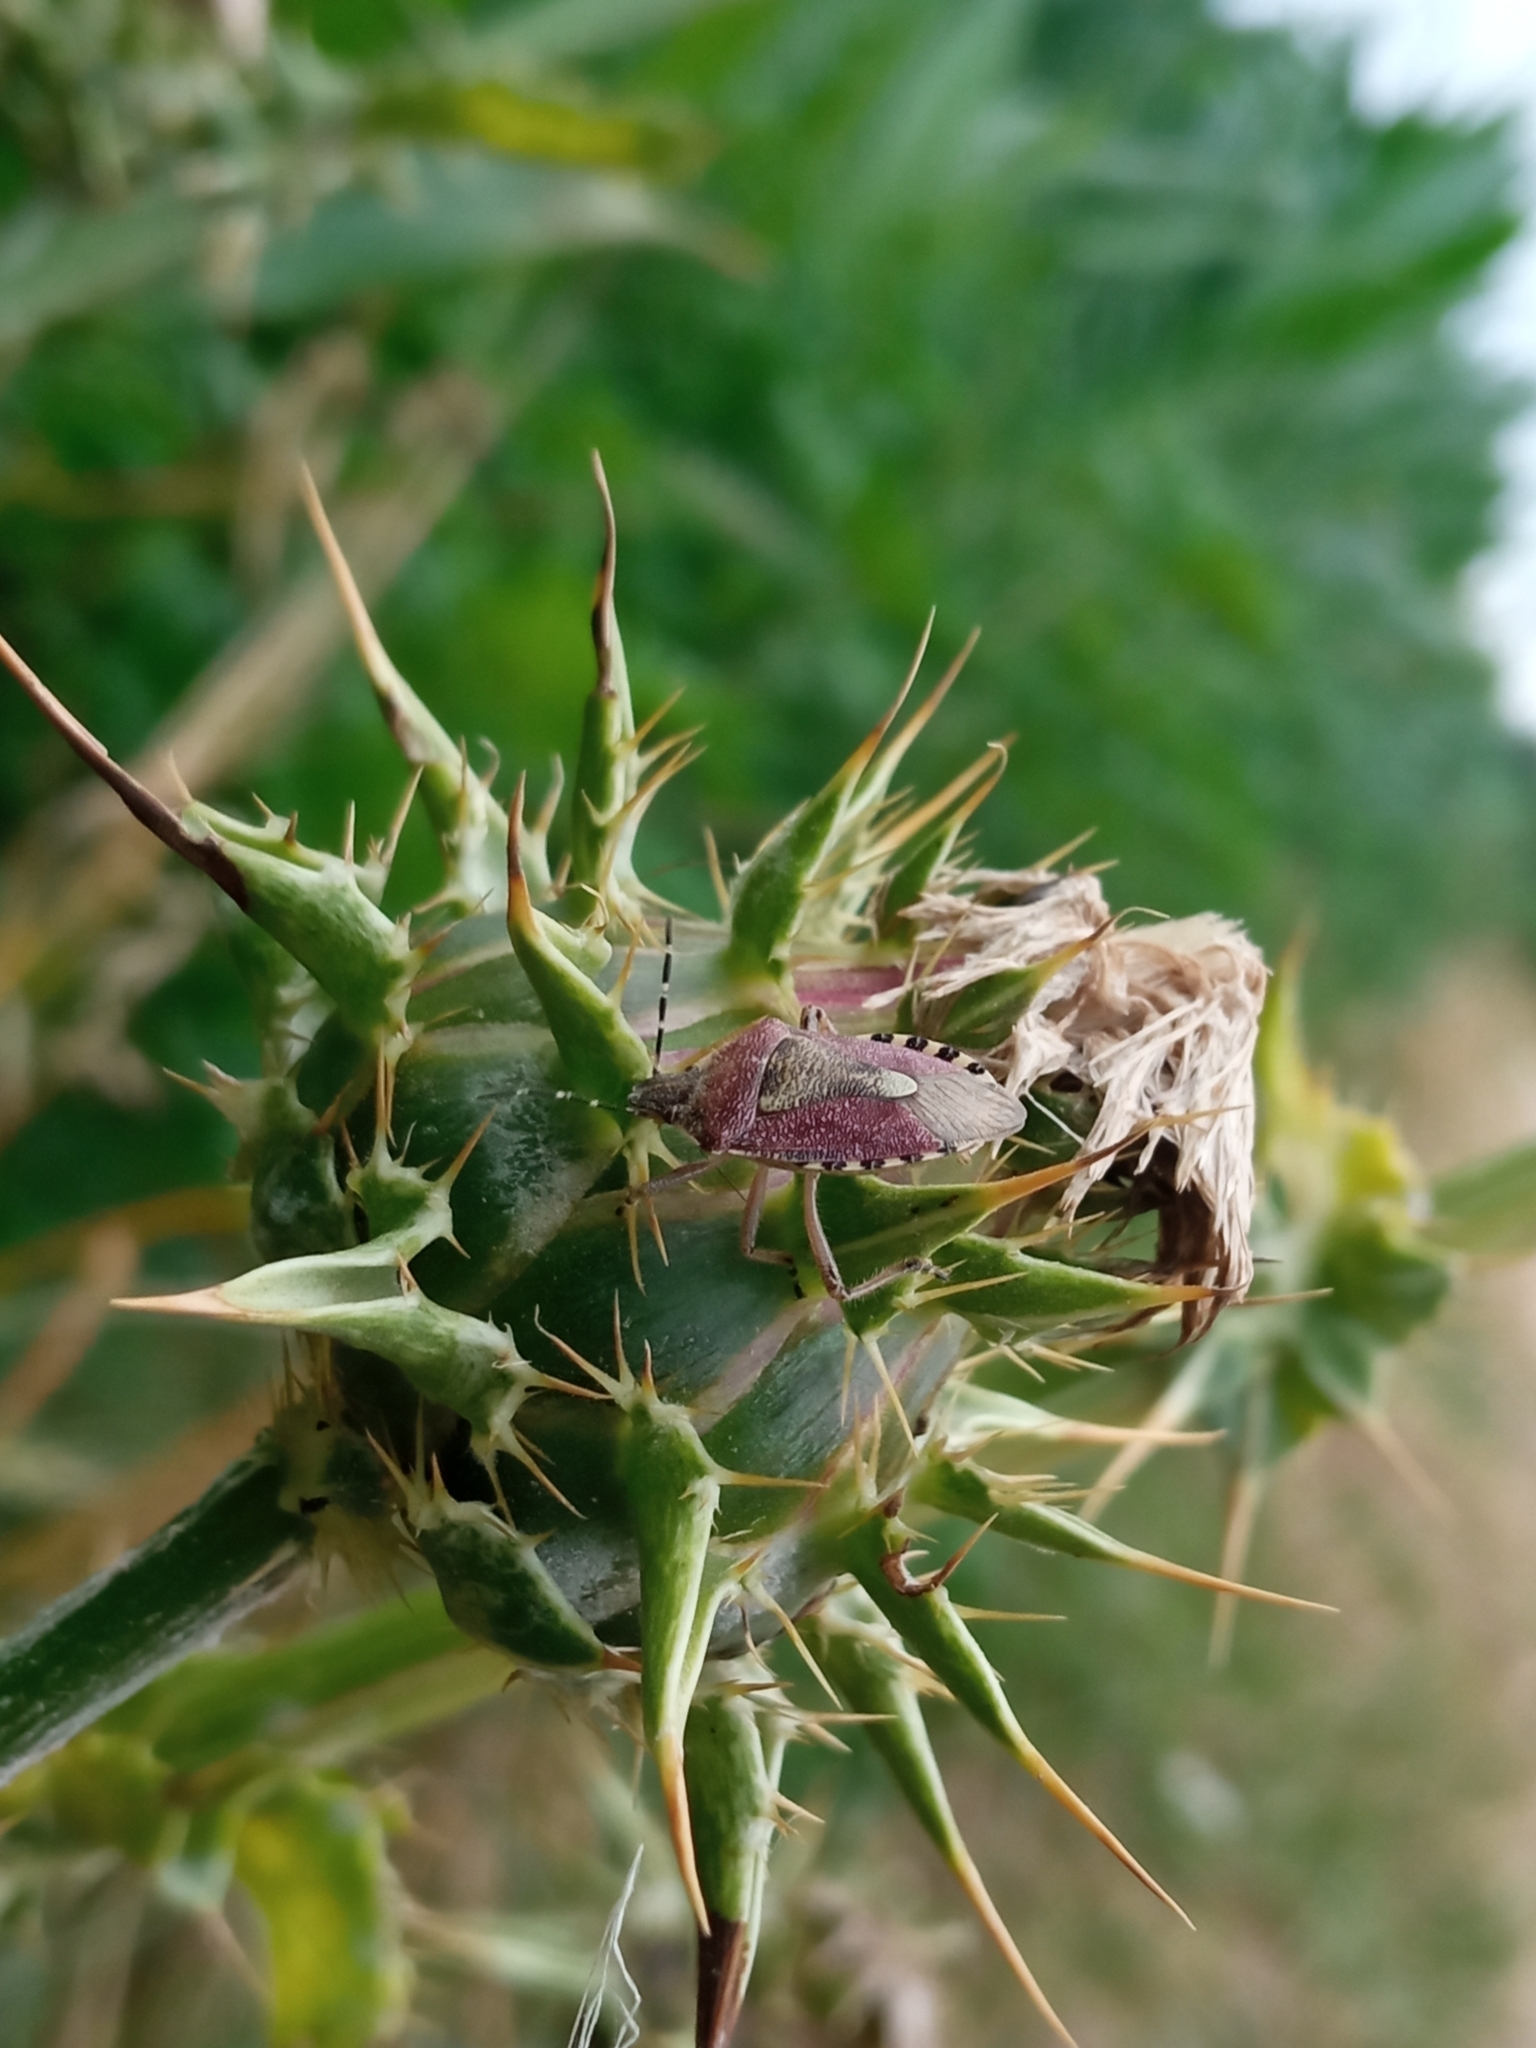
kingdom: Animalia
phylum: Arthropoda
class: Insecta
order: Hemiptera
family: Pentatomidae
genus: Dolycoris
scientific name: Dolycoris baccarum
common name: Sloe bug
